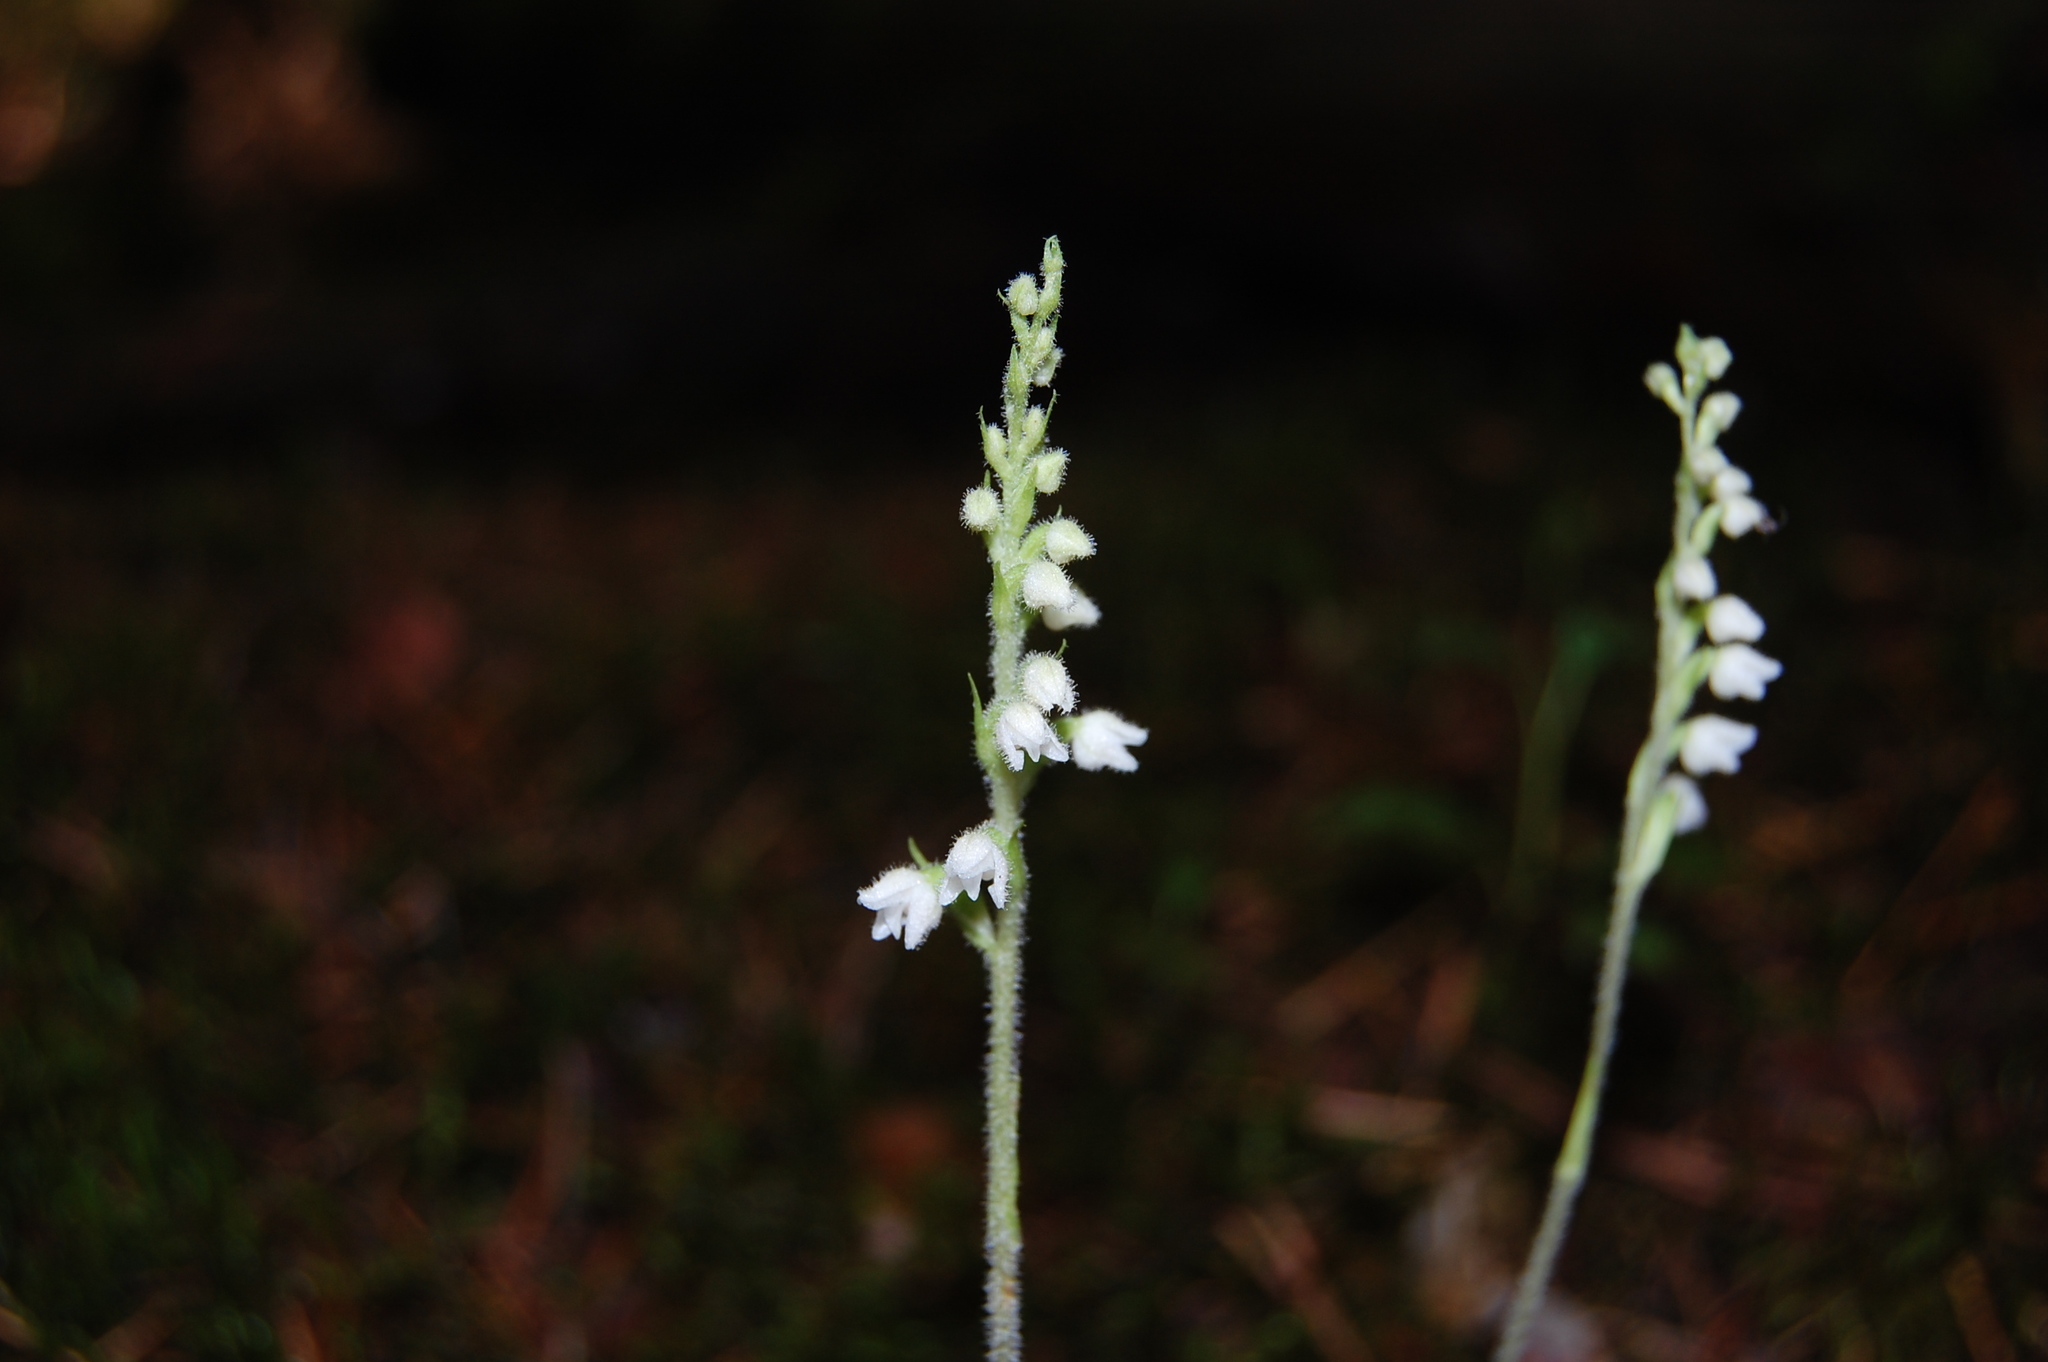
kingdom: Plantae
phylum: Tracheophyta
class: Liliopsida
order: Asparagales
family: Orchidaceae
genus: Goodyera
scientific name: Goodyera repens
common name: Creeping lady's-tresses
